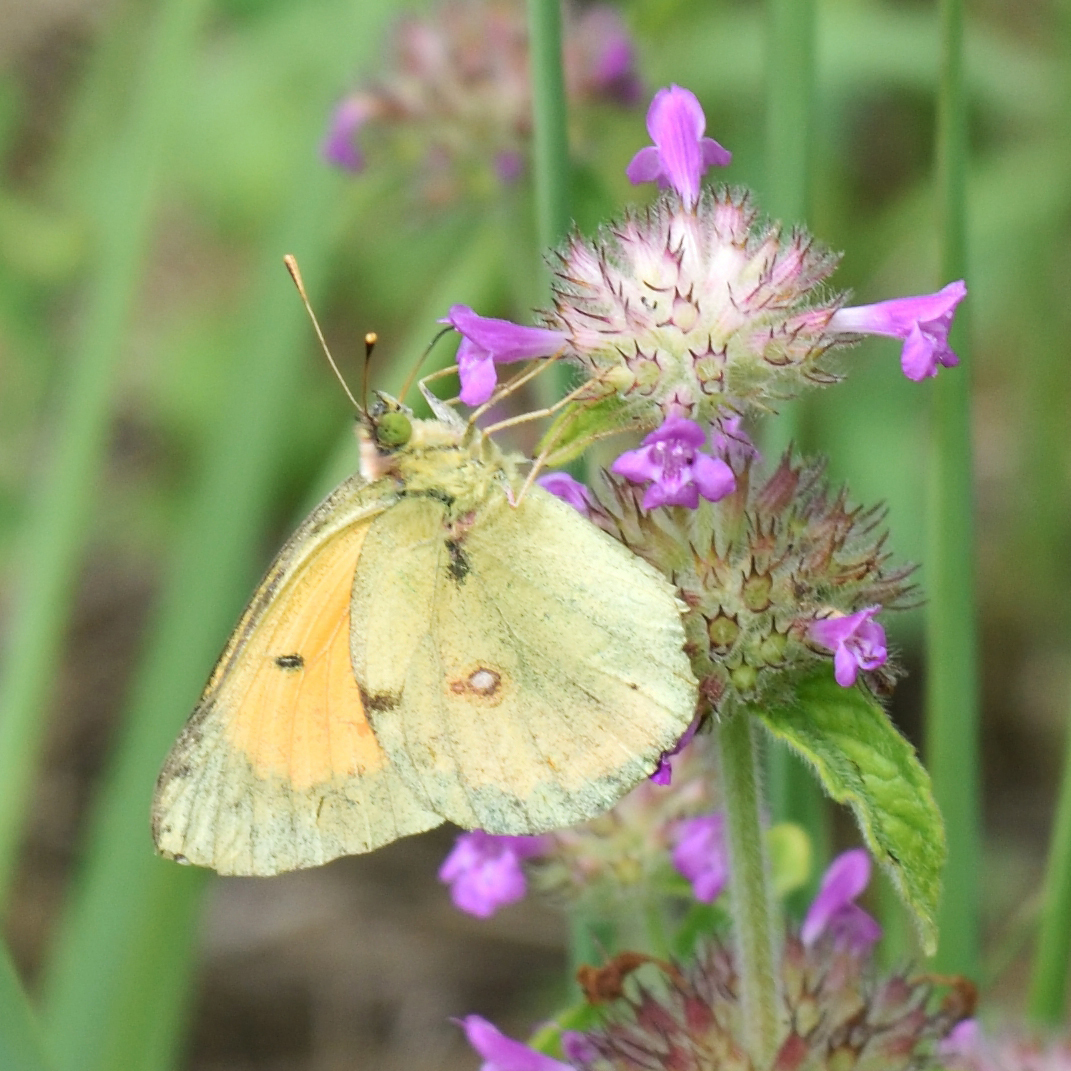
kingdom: Animalia
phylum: Arthropoda
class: Insecta
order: Lepidoptera
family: Pieridae
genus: Colias
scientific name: Colias myrmidone
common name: Danube clouded yellow
